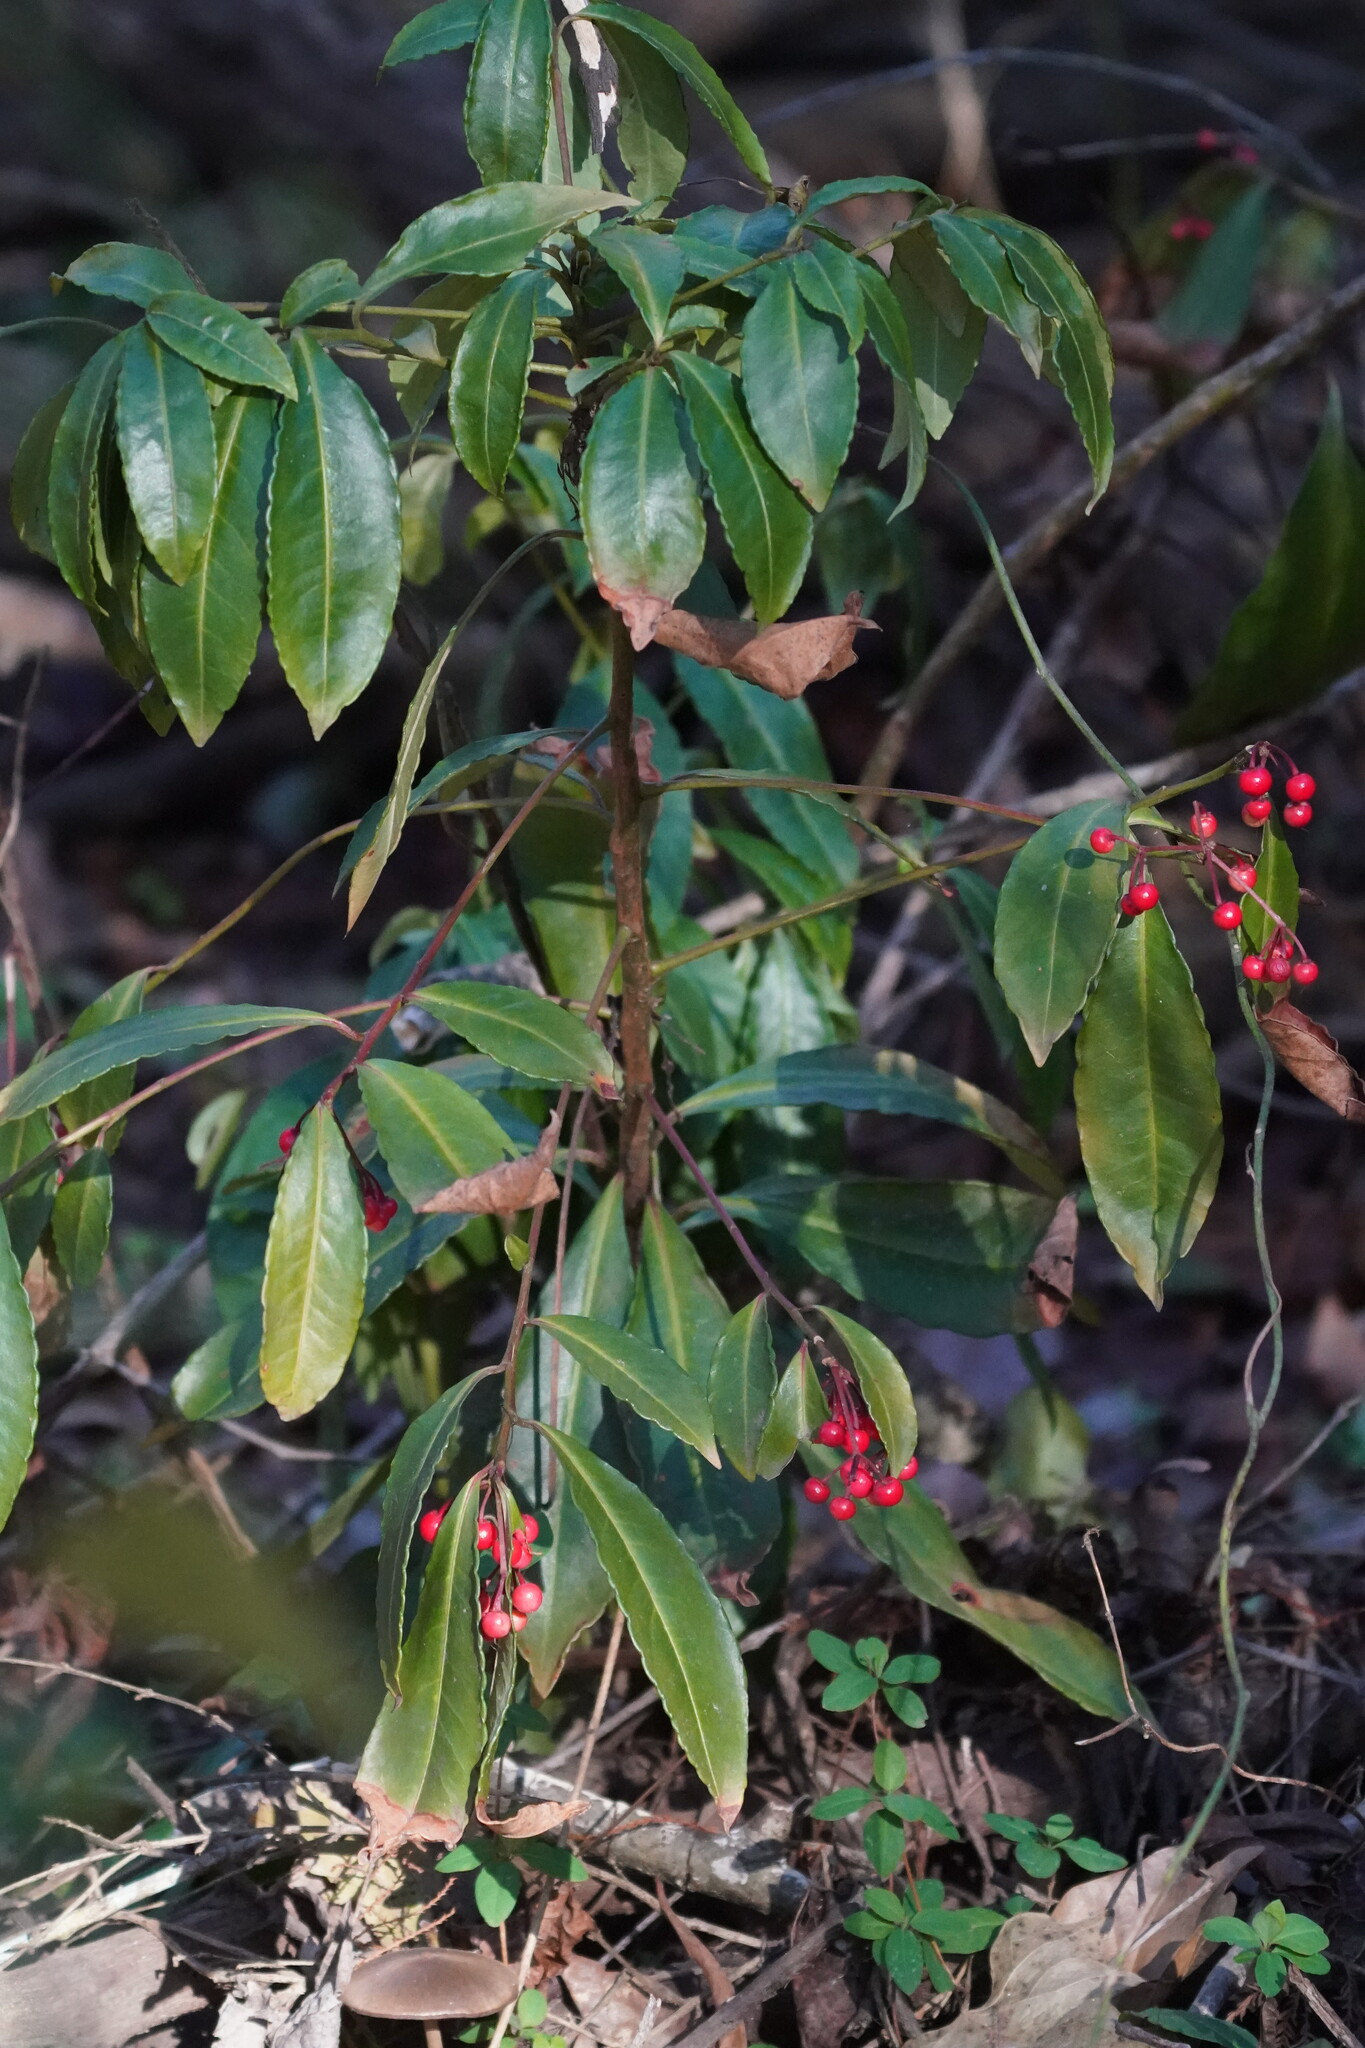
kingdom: Plantae
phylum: Tracheophyta
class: Magnoliopsida
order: Ericales
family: Primulaceae
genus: Ardisia
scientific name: Ardisia crenata
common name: Hen's eyes
